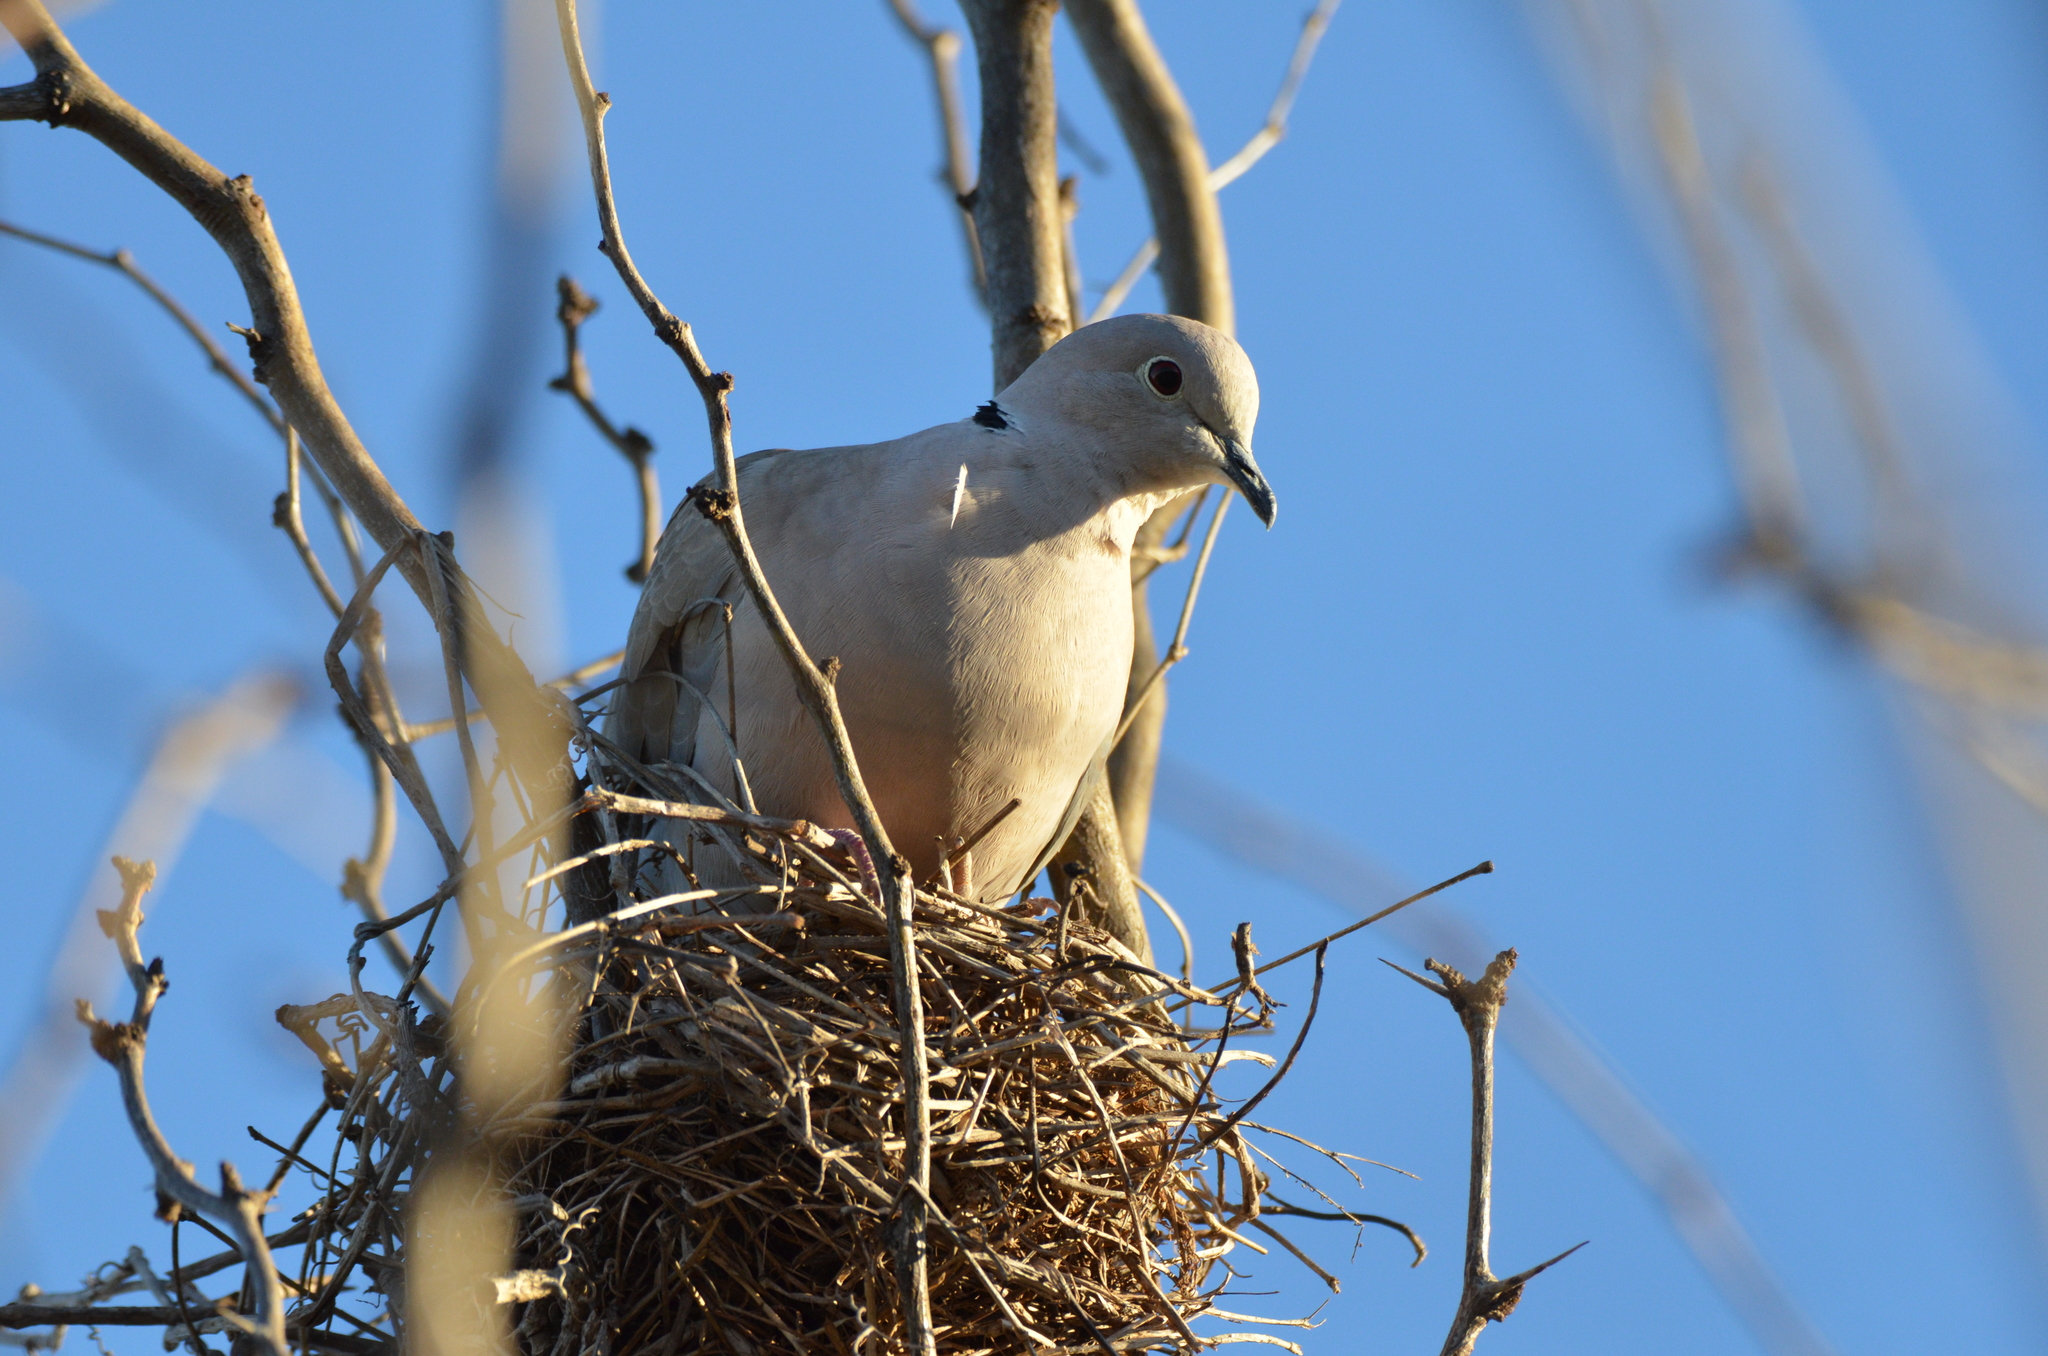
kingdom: Animalia
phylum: Chordata
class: Aves
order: Columbiformes
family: Columbidae
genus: Streptopelia
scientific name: Streptopelia decaocto
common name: Eurasian collared dove
